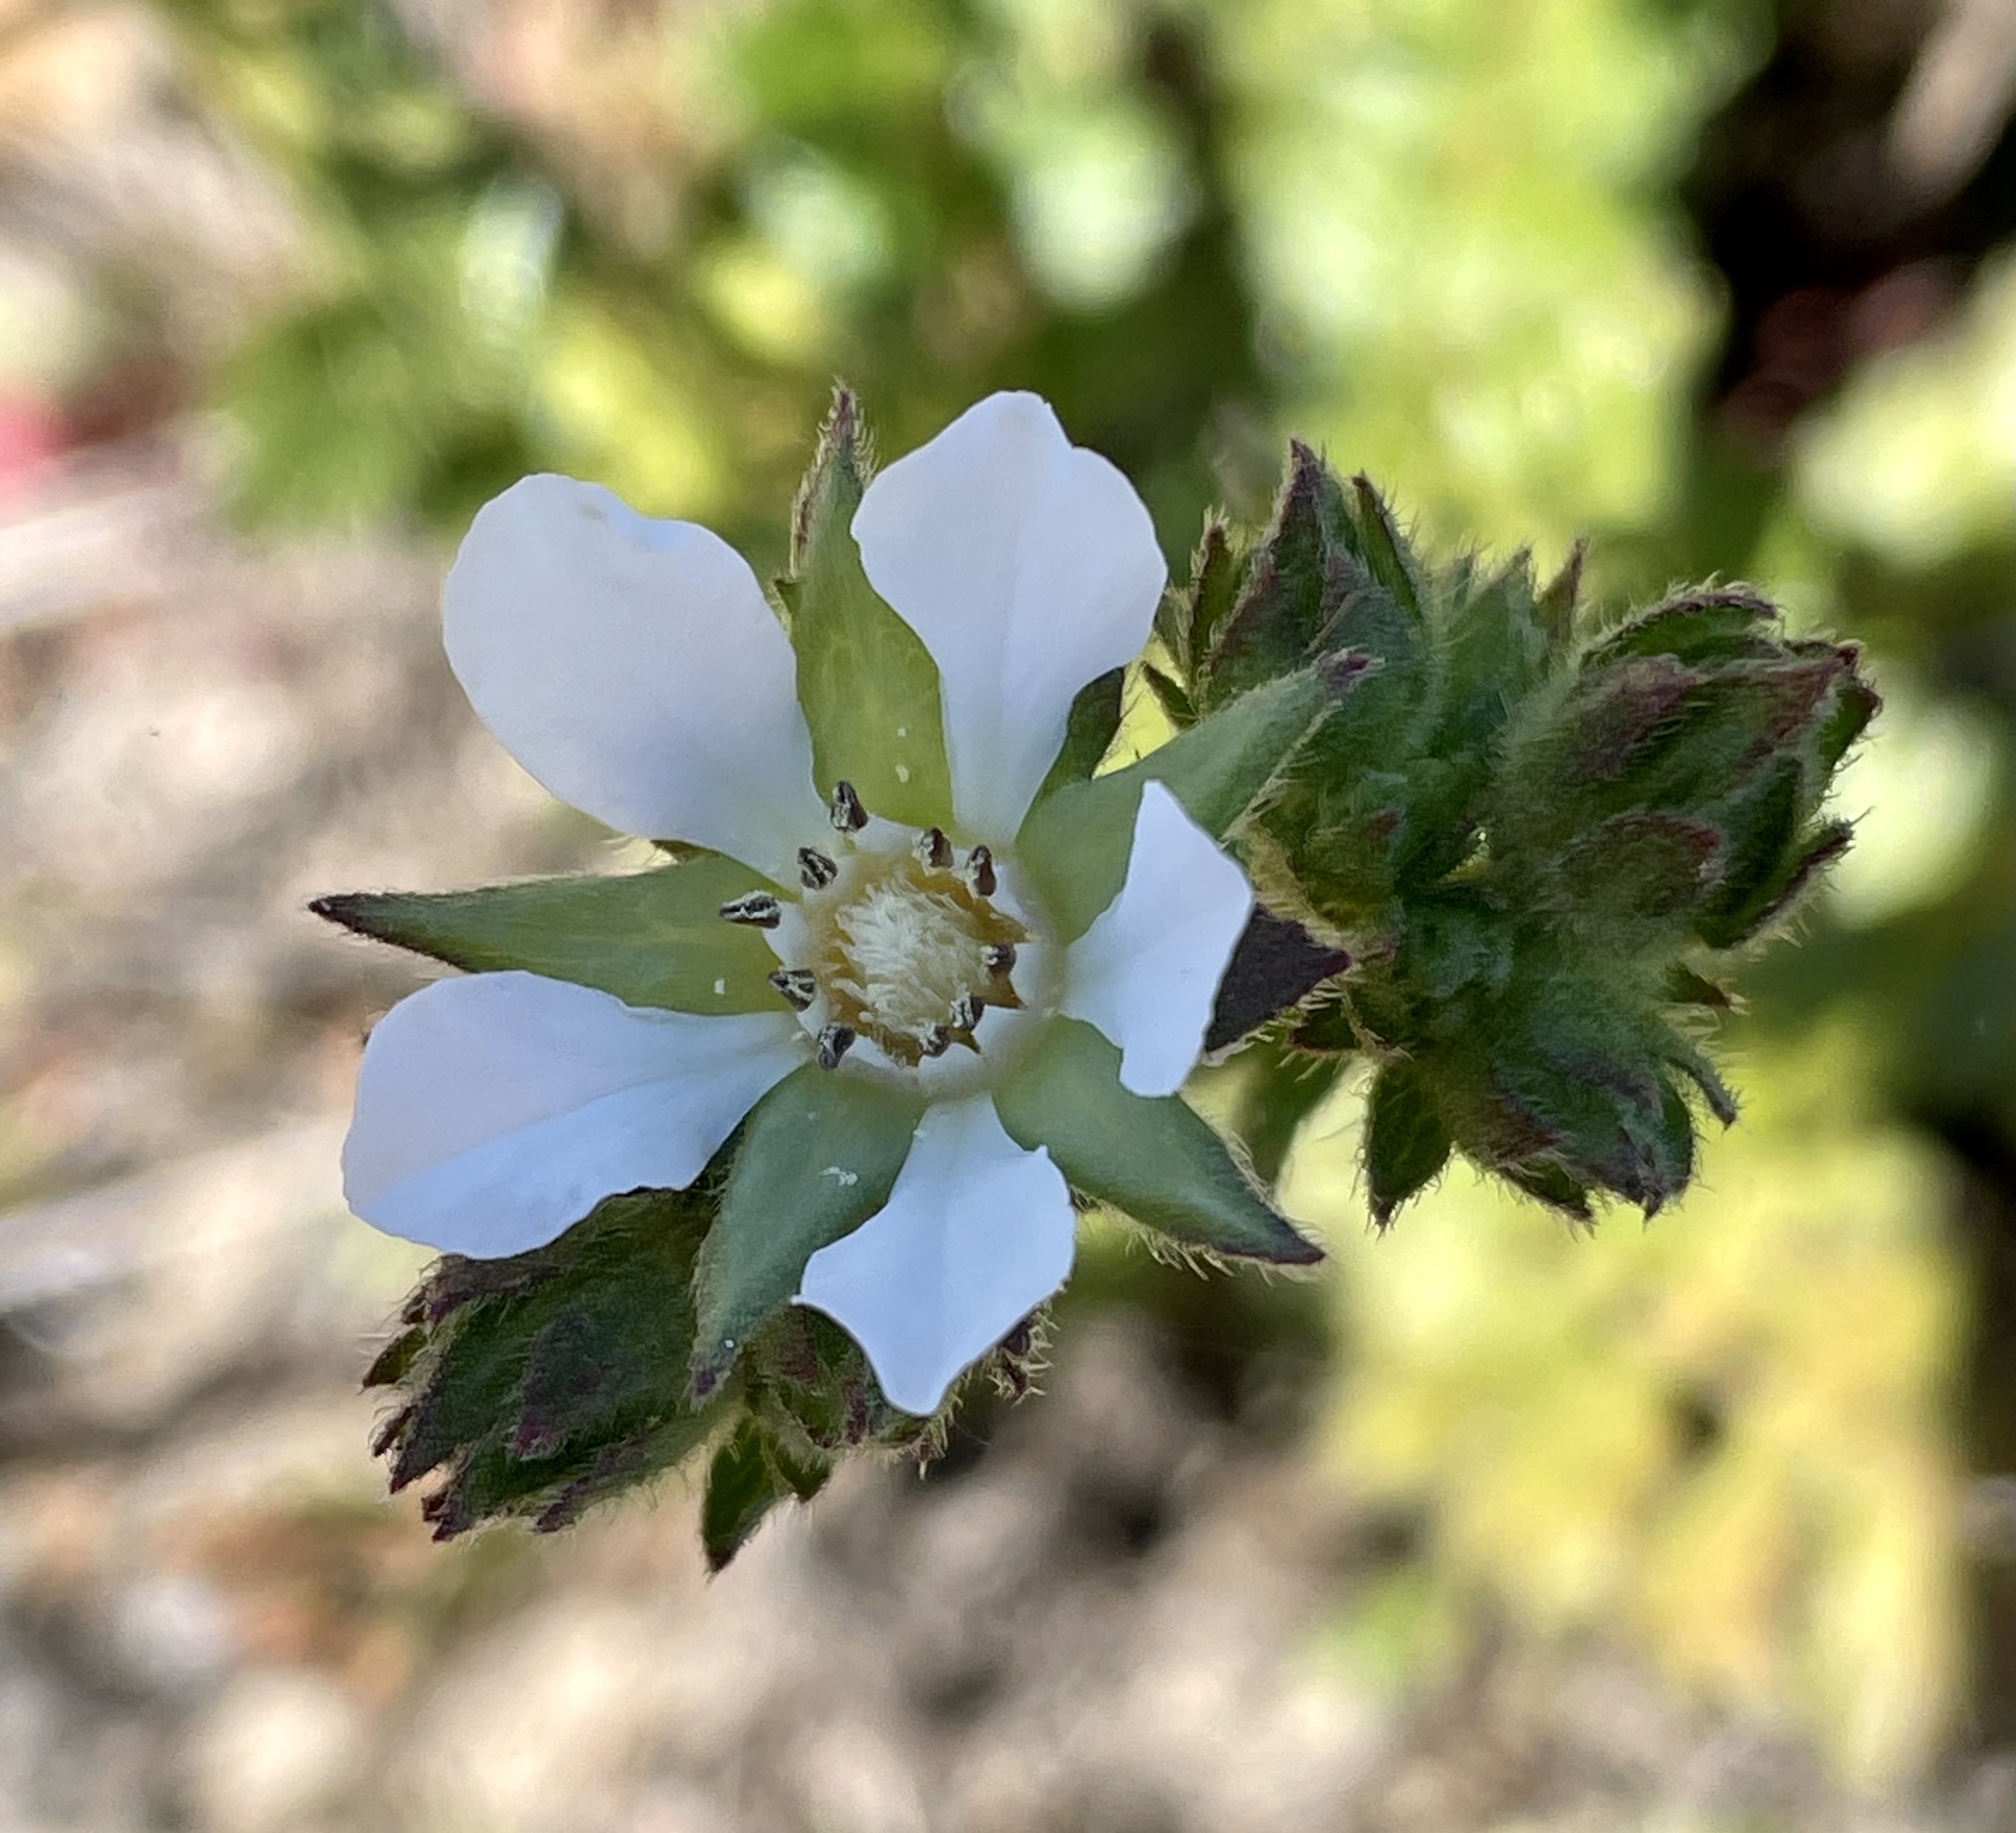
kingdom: Plantae
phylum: Tracheophyta
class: Magnoliopsida
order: Rosales
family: Rosaceae
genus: Potentilla
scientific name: Potentilla
